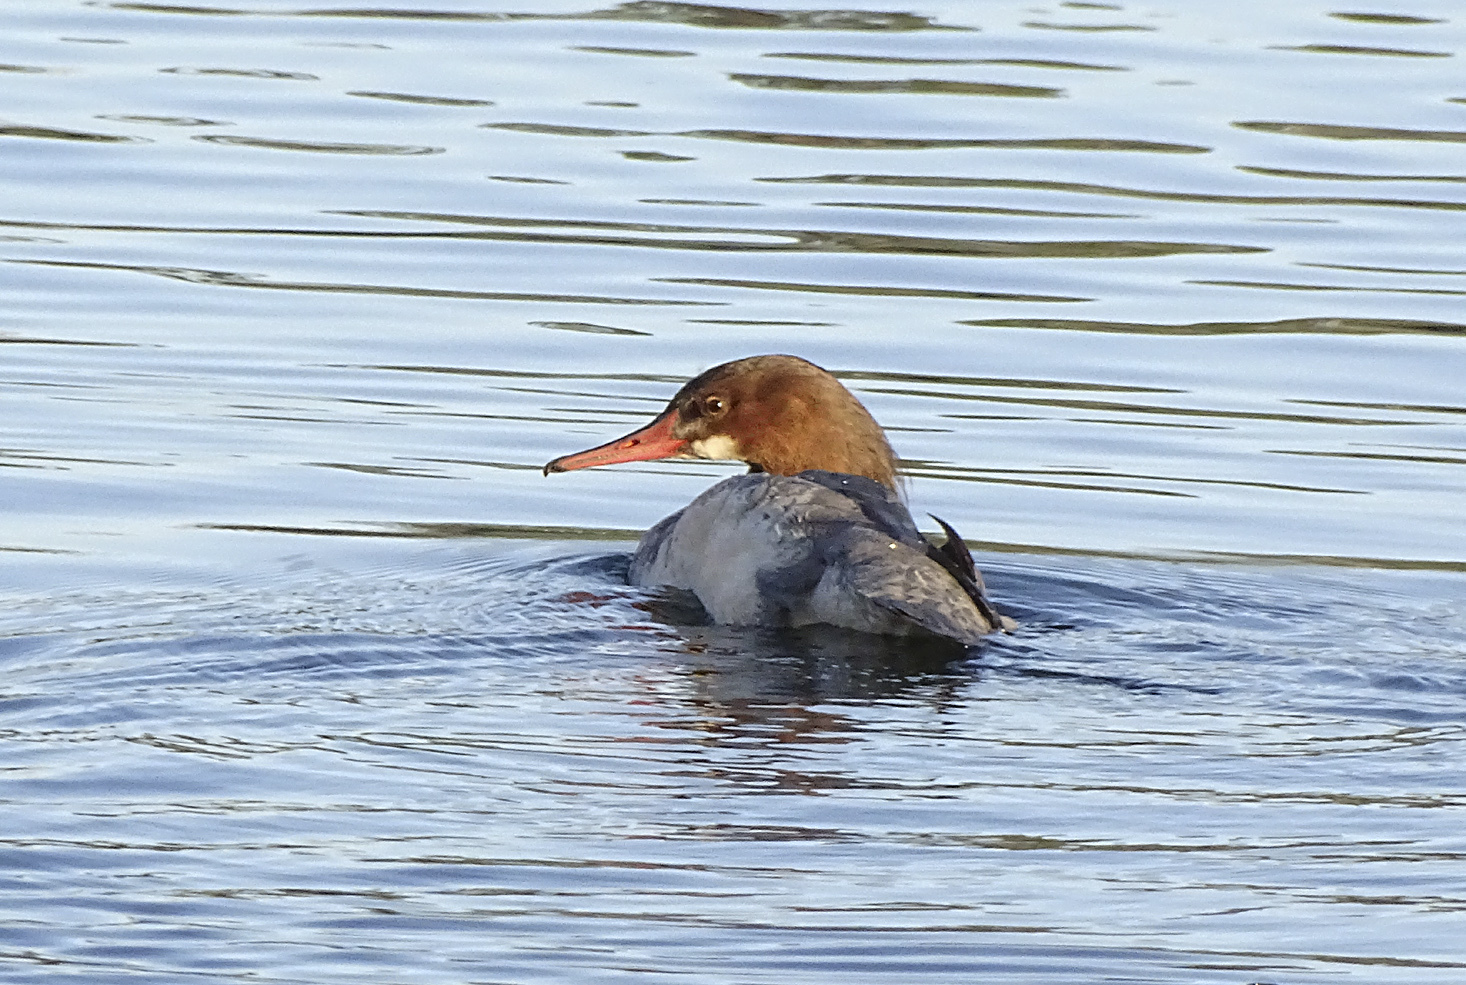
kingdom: Animalia
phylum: Chordata
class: Aves
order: Anseriformes
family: Anatidae
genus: Mergus
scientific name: Mergus merganser
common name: Common merganser
